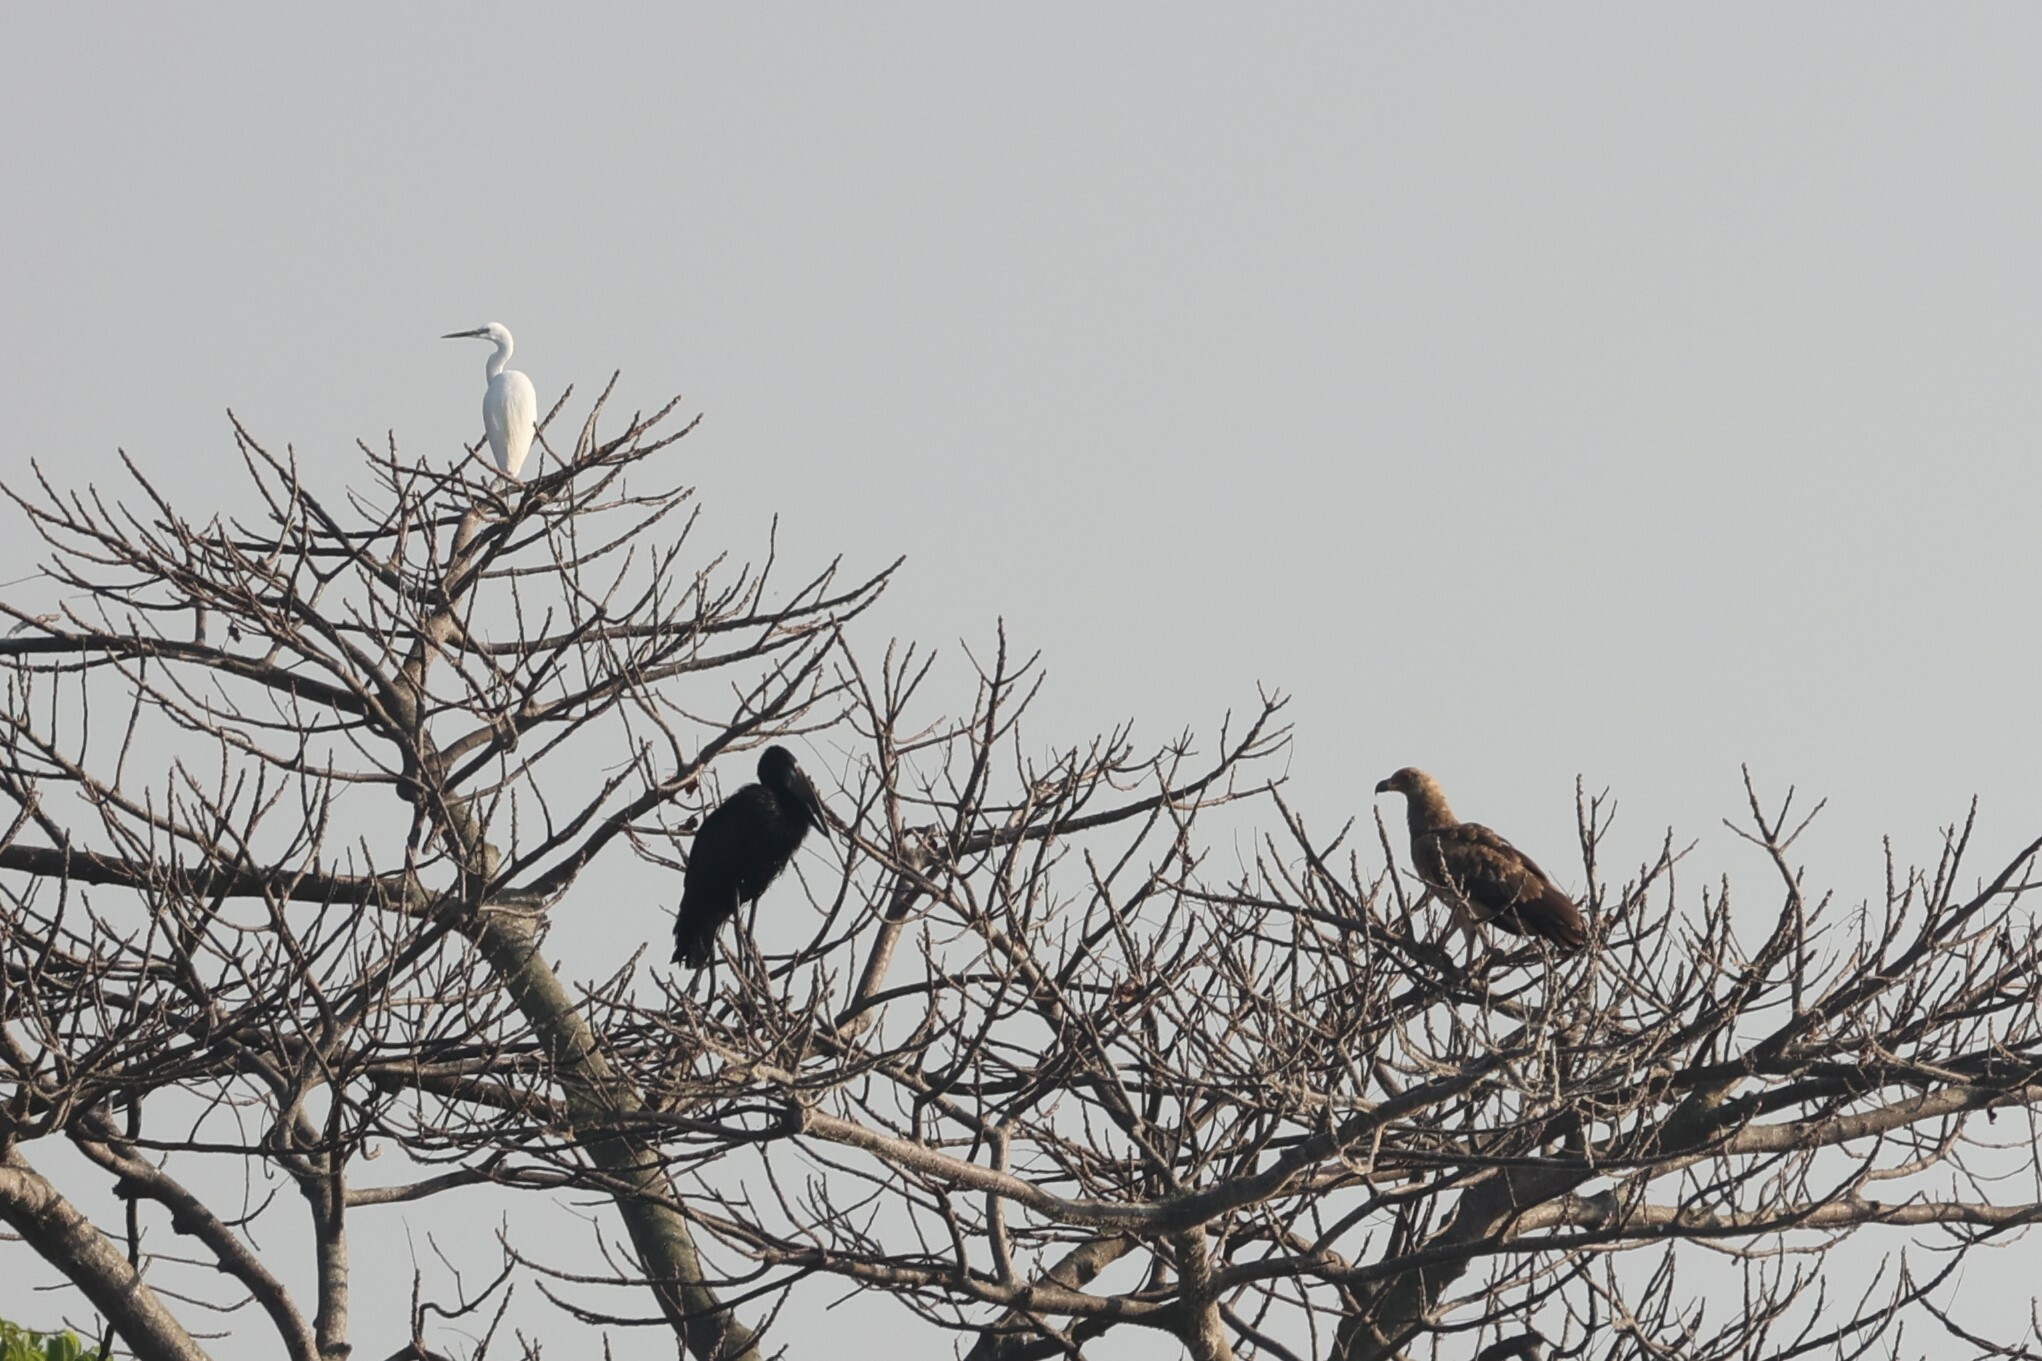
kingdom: Animalia
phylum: Chordata
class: Aves
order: Ciconiiformes
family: Ciconiidae
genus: Anastomus
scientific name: Anastomus lamelligerus
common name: African openbill
